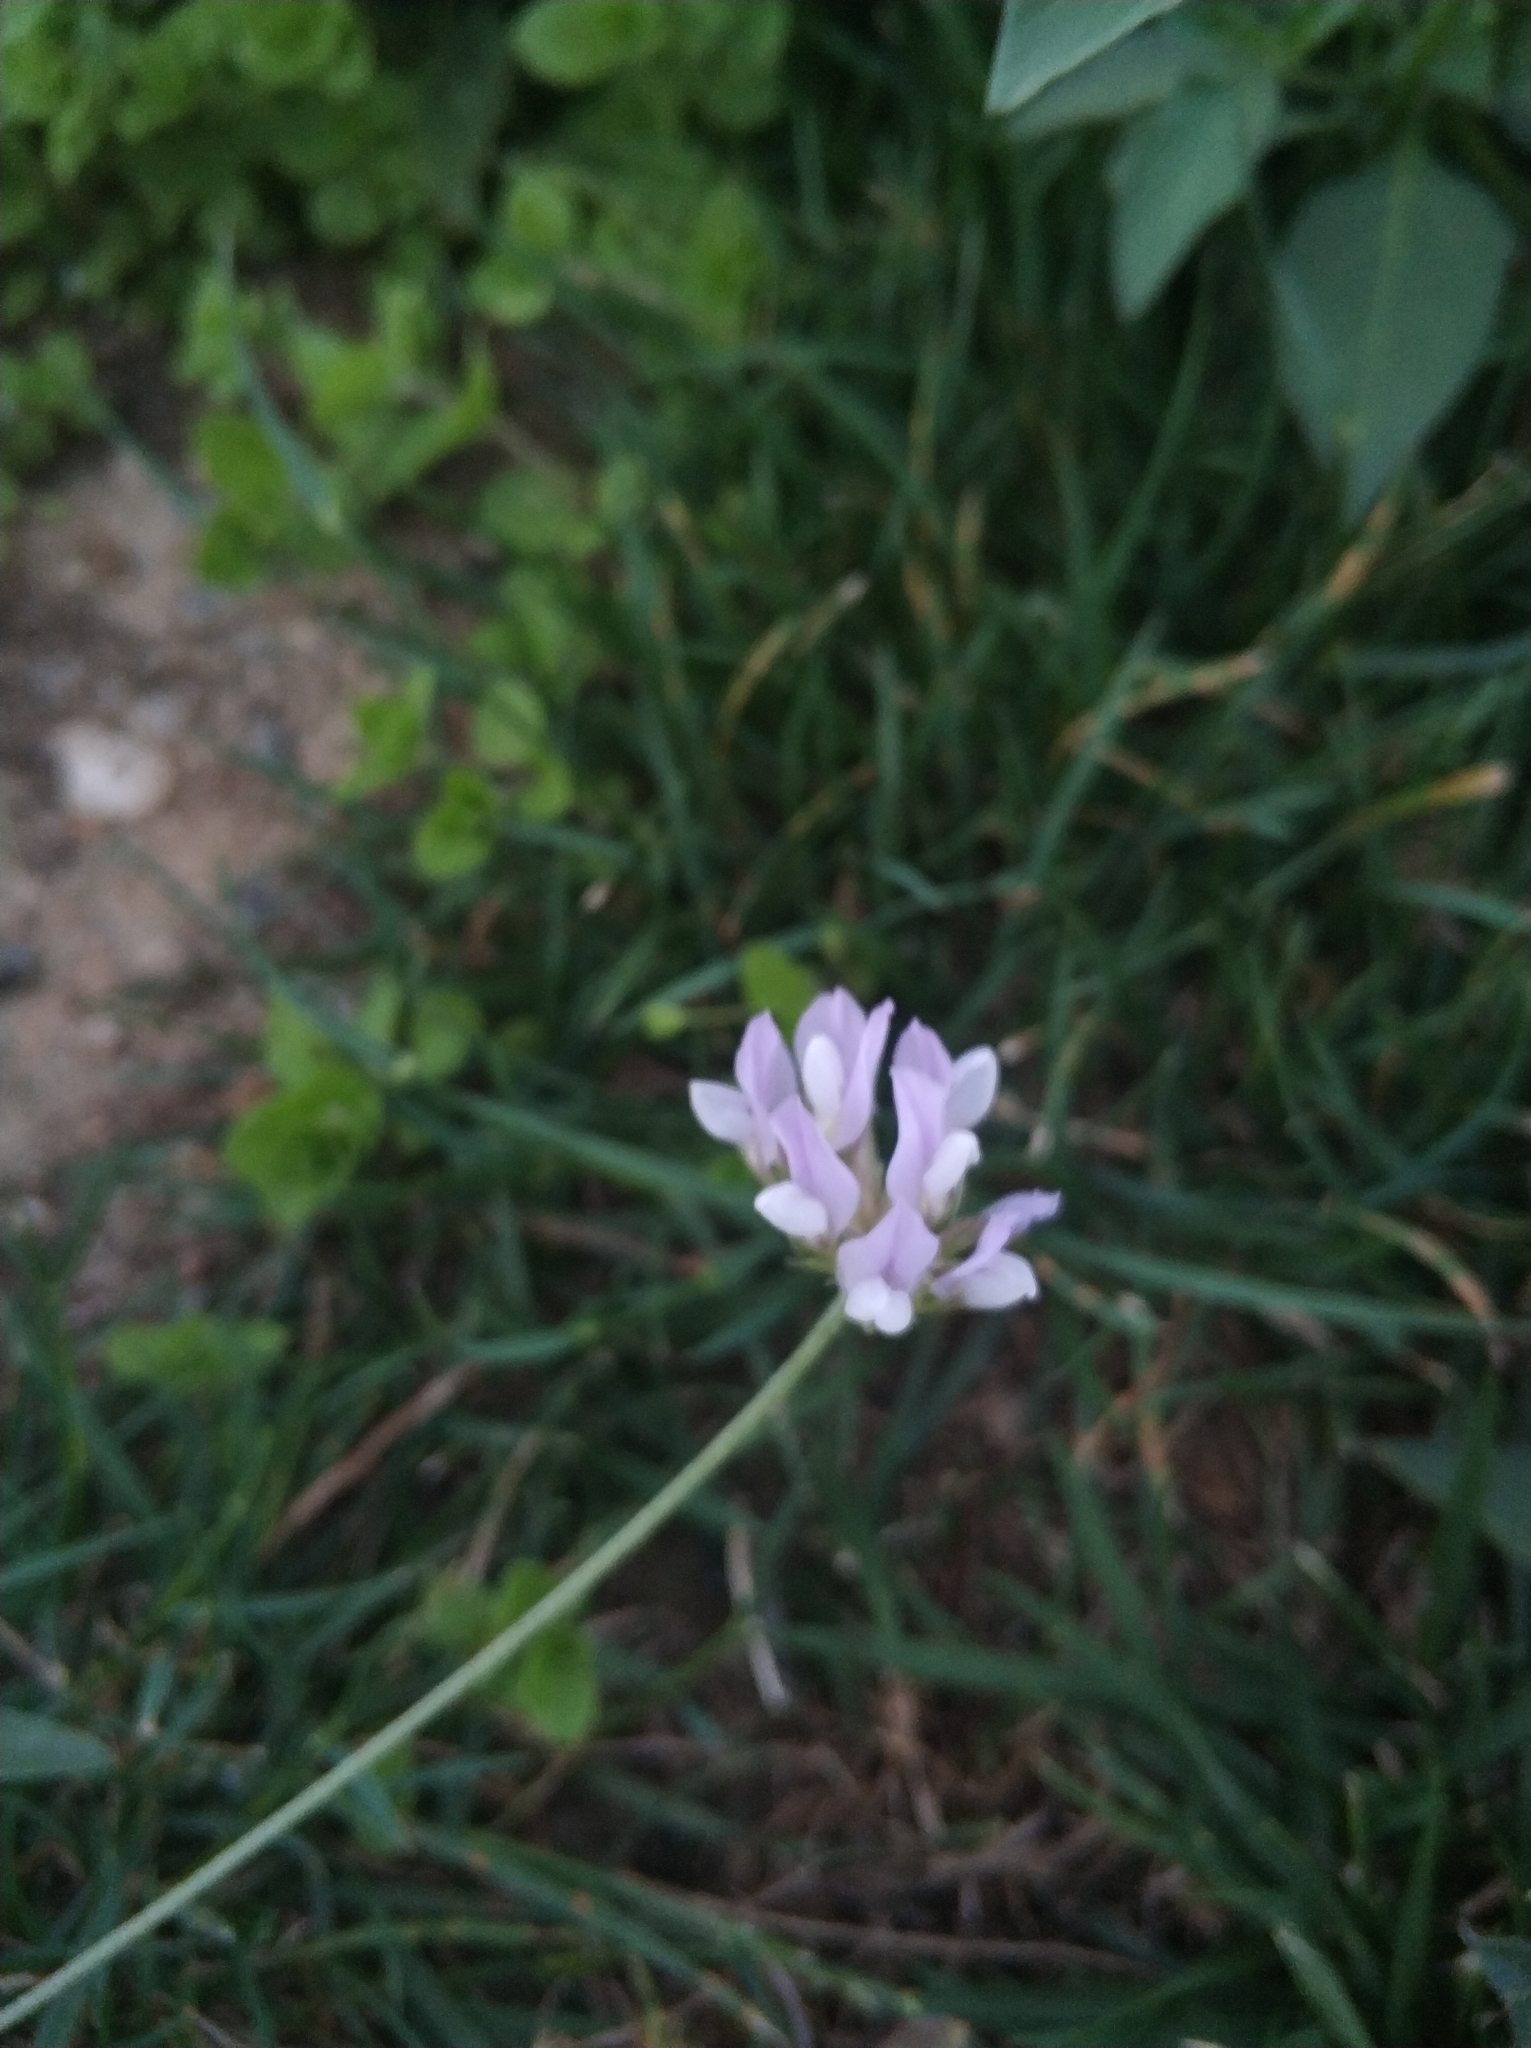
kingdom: Plantae
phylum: Tracheophyta
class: Magnoliopsida
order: Fabales
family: Fabaceae
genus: Bituminaria
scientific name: Bituminaria bituminosa
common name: Arabian pea
